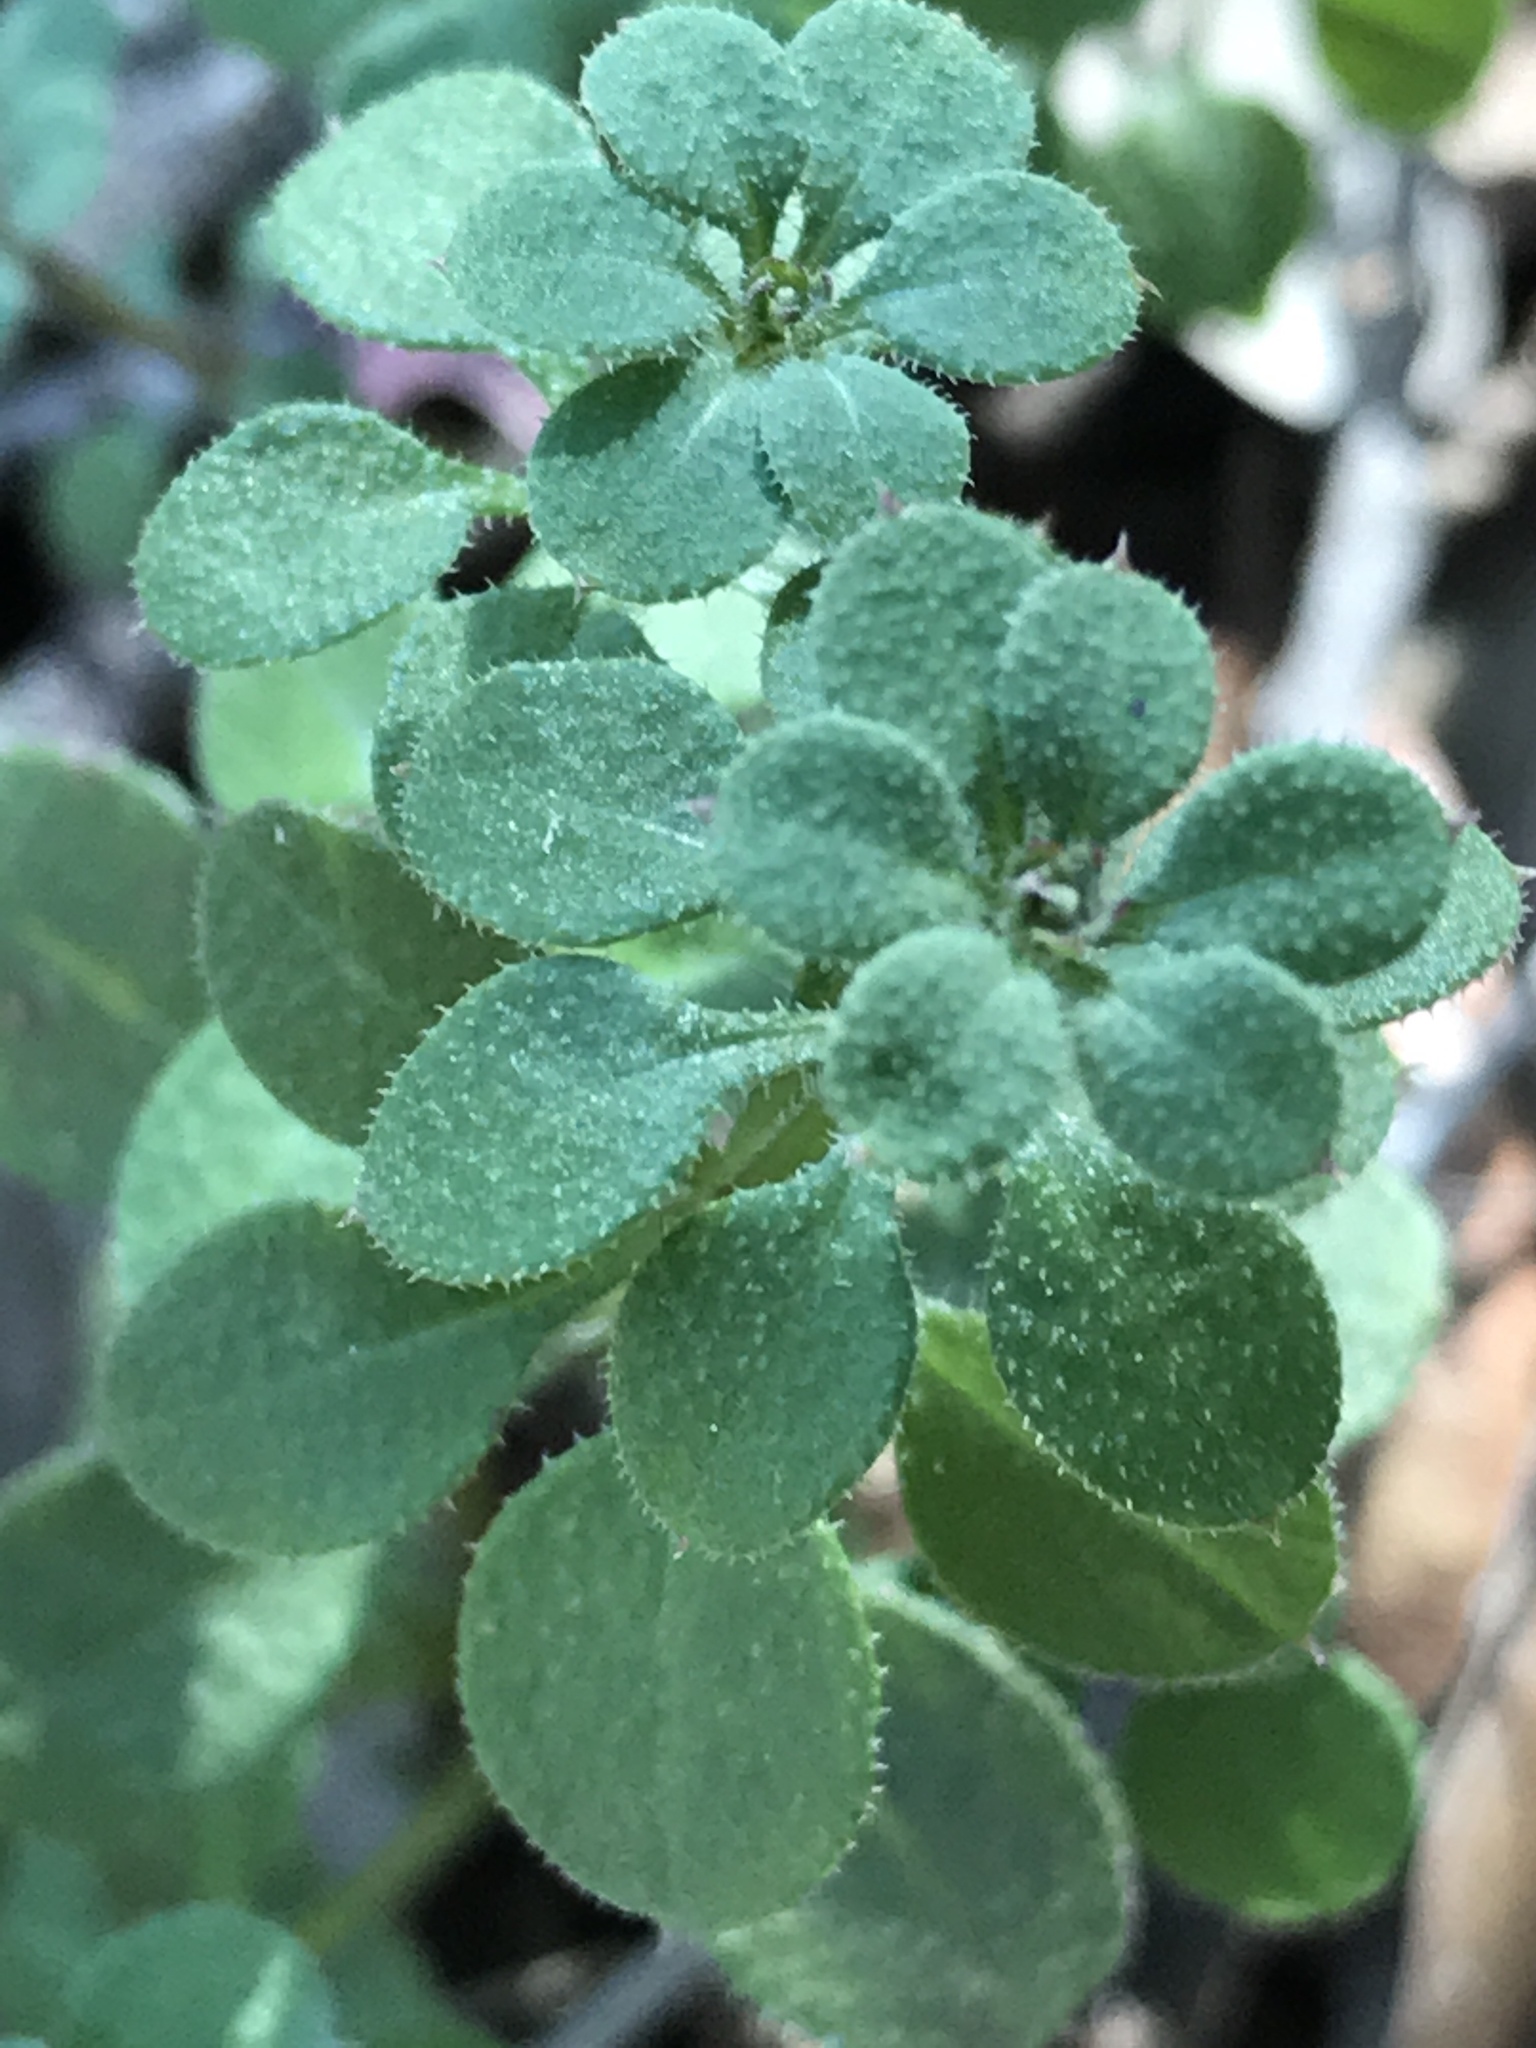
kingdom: Plantae
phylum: Tracheophyta
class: Magnoliopsida
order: Gentianales
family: Rubiaceae
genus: Galium
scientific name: Galium aparine
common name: Cleavers
